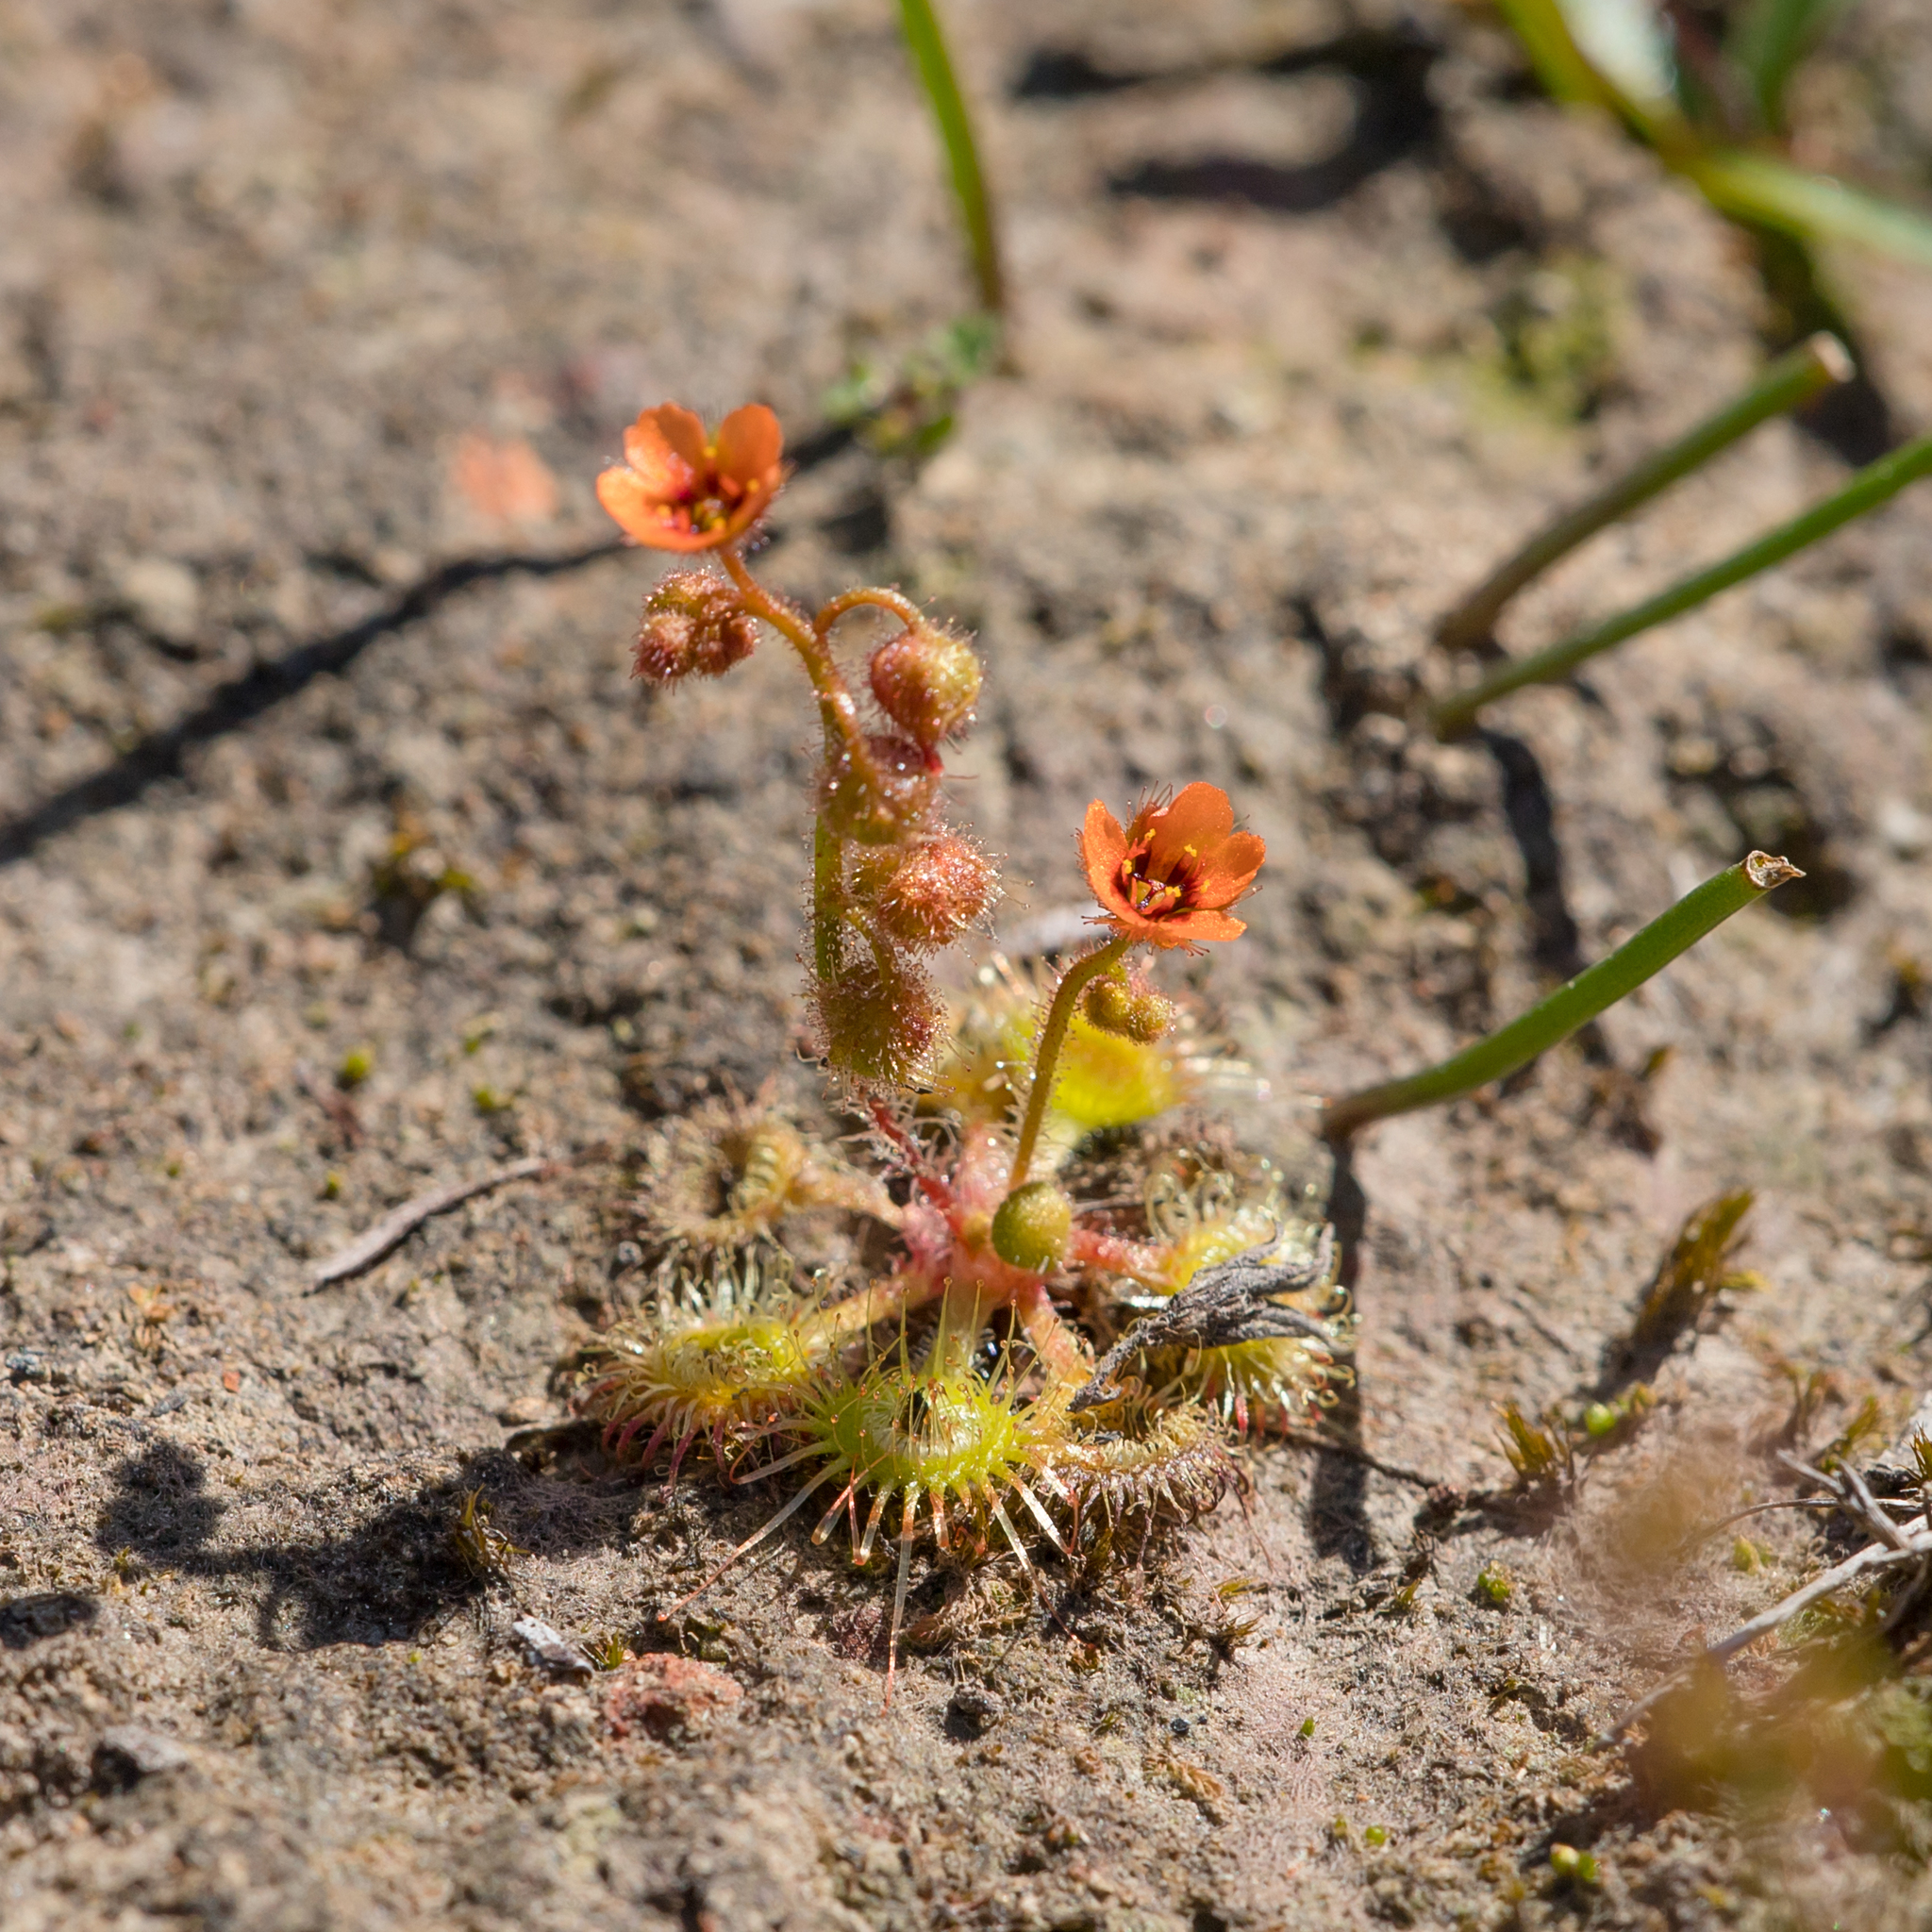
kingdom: Plantae
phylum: Tracheophyta
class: Magnoliopsida
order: Caryophyllales
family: Droseraceae
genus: Drosera
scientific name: Drosera glanduligera
